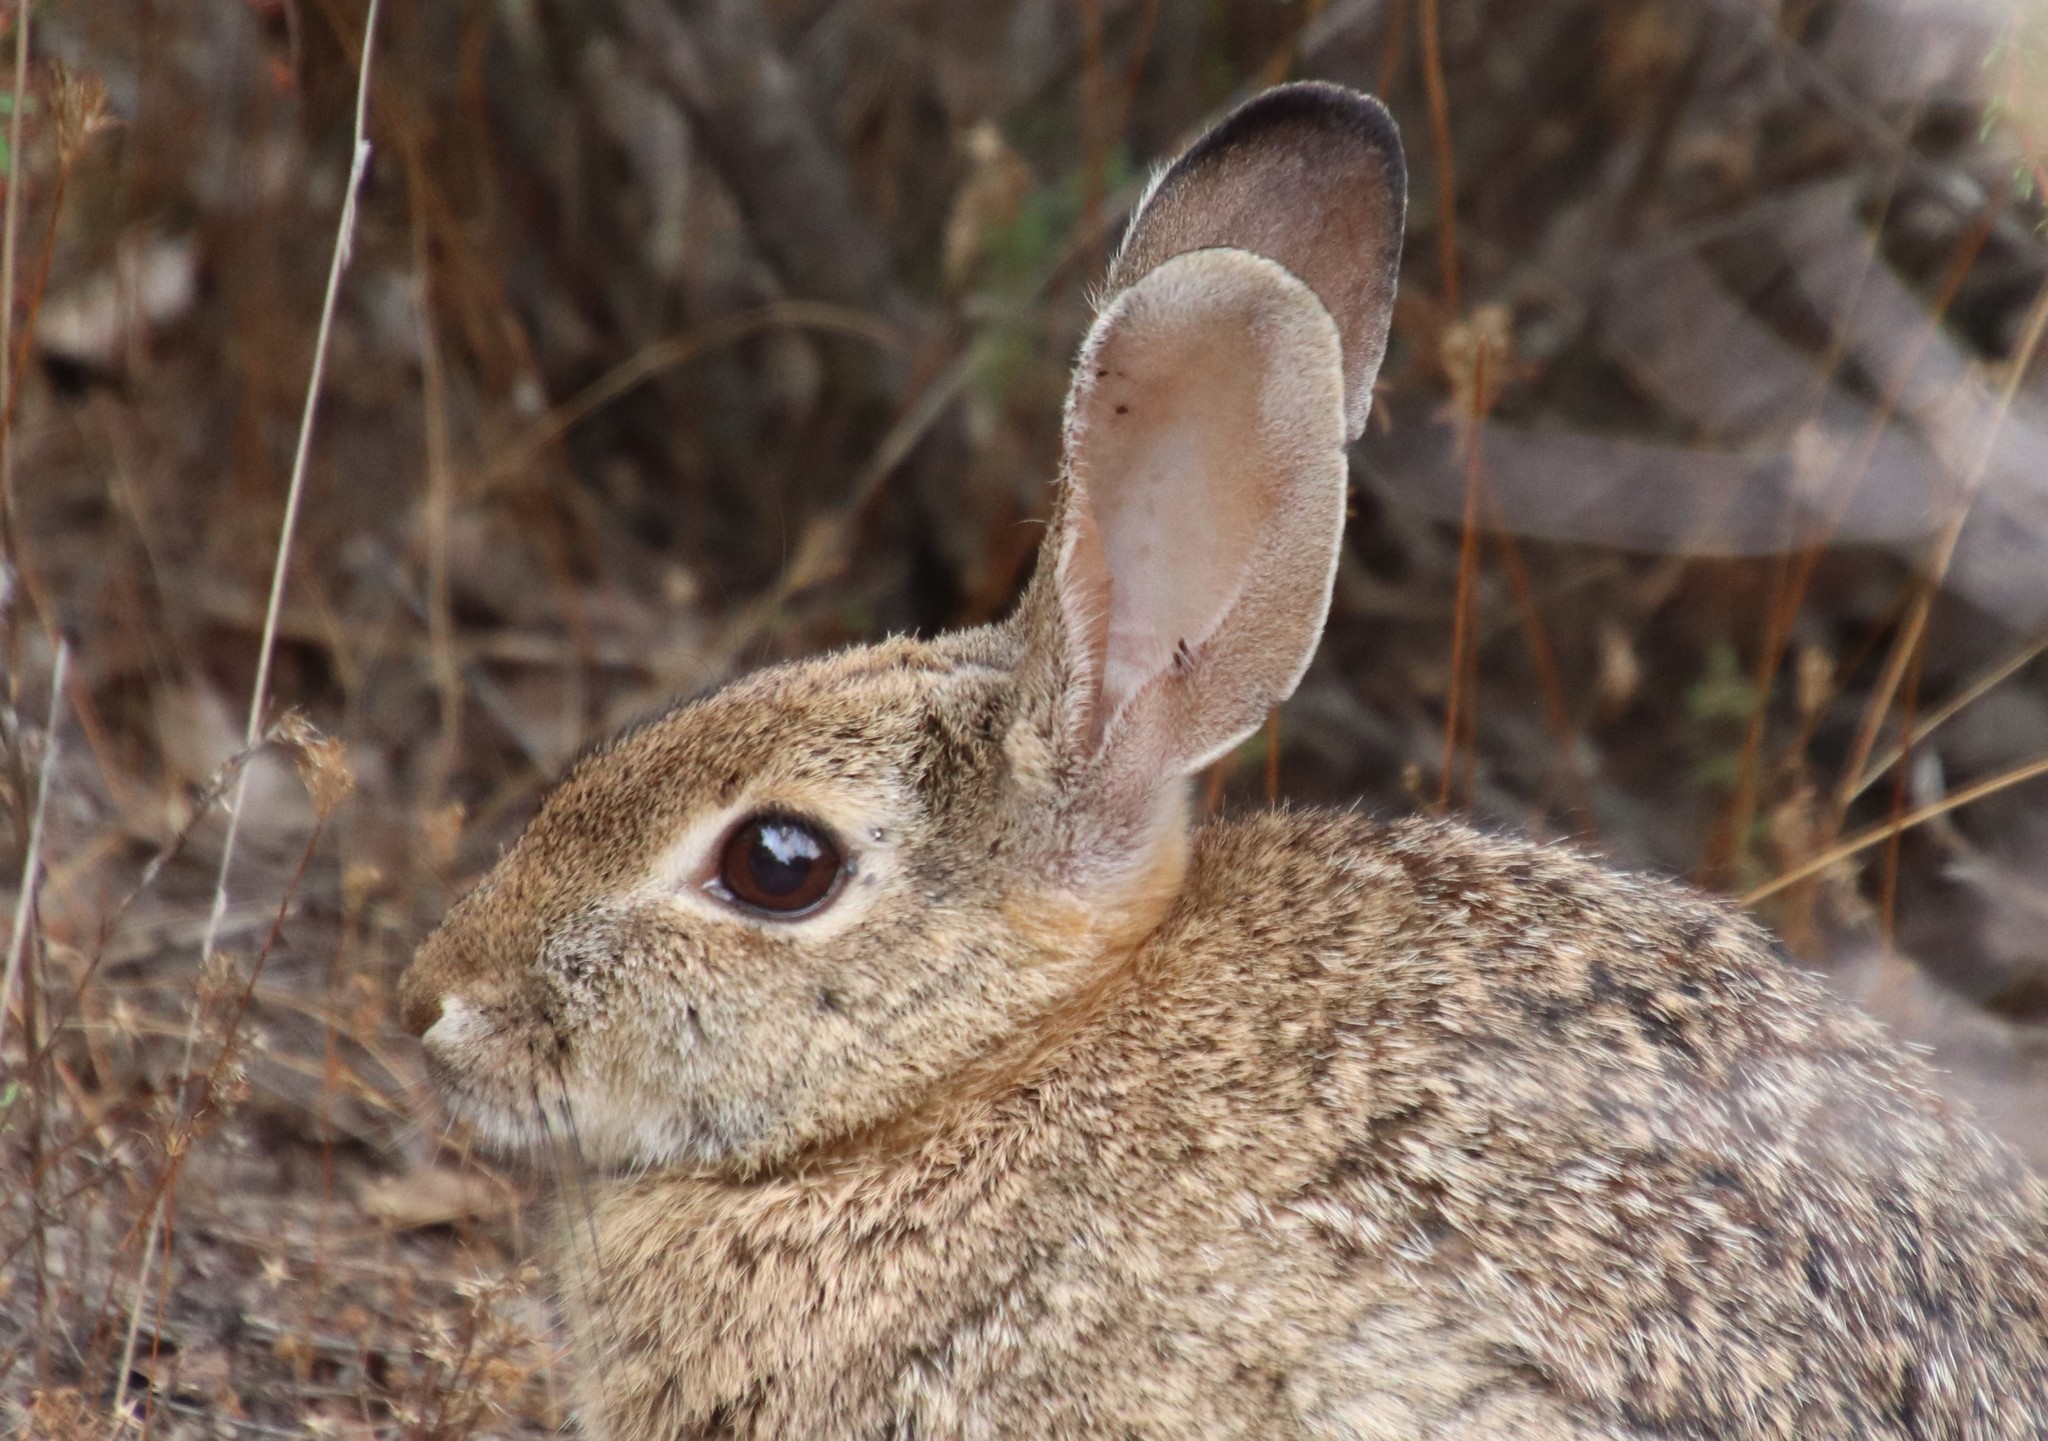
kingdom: Animalia
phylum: Chordata
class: Mammalia
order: Lagomorpha
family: Leporidae
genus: Sylvilagus
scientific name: Sylvilagus audubonii
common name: Desert cottontail
